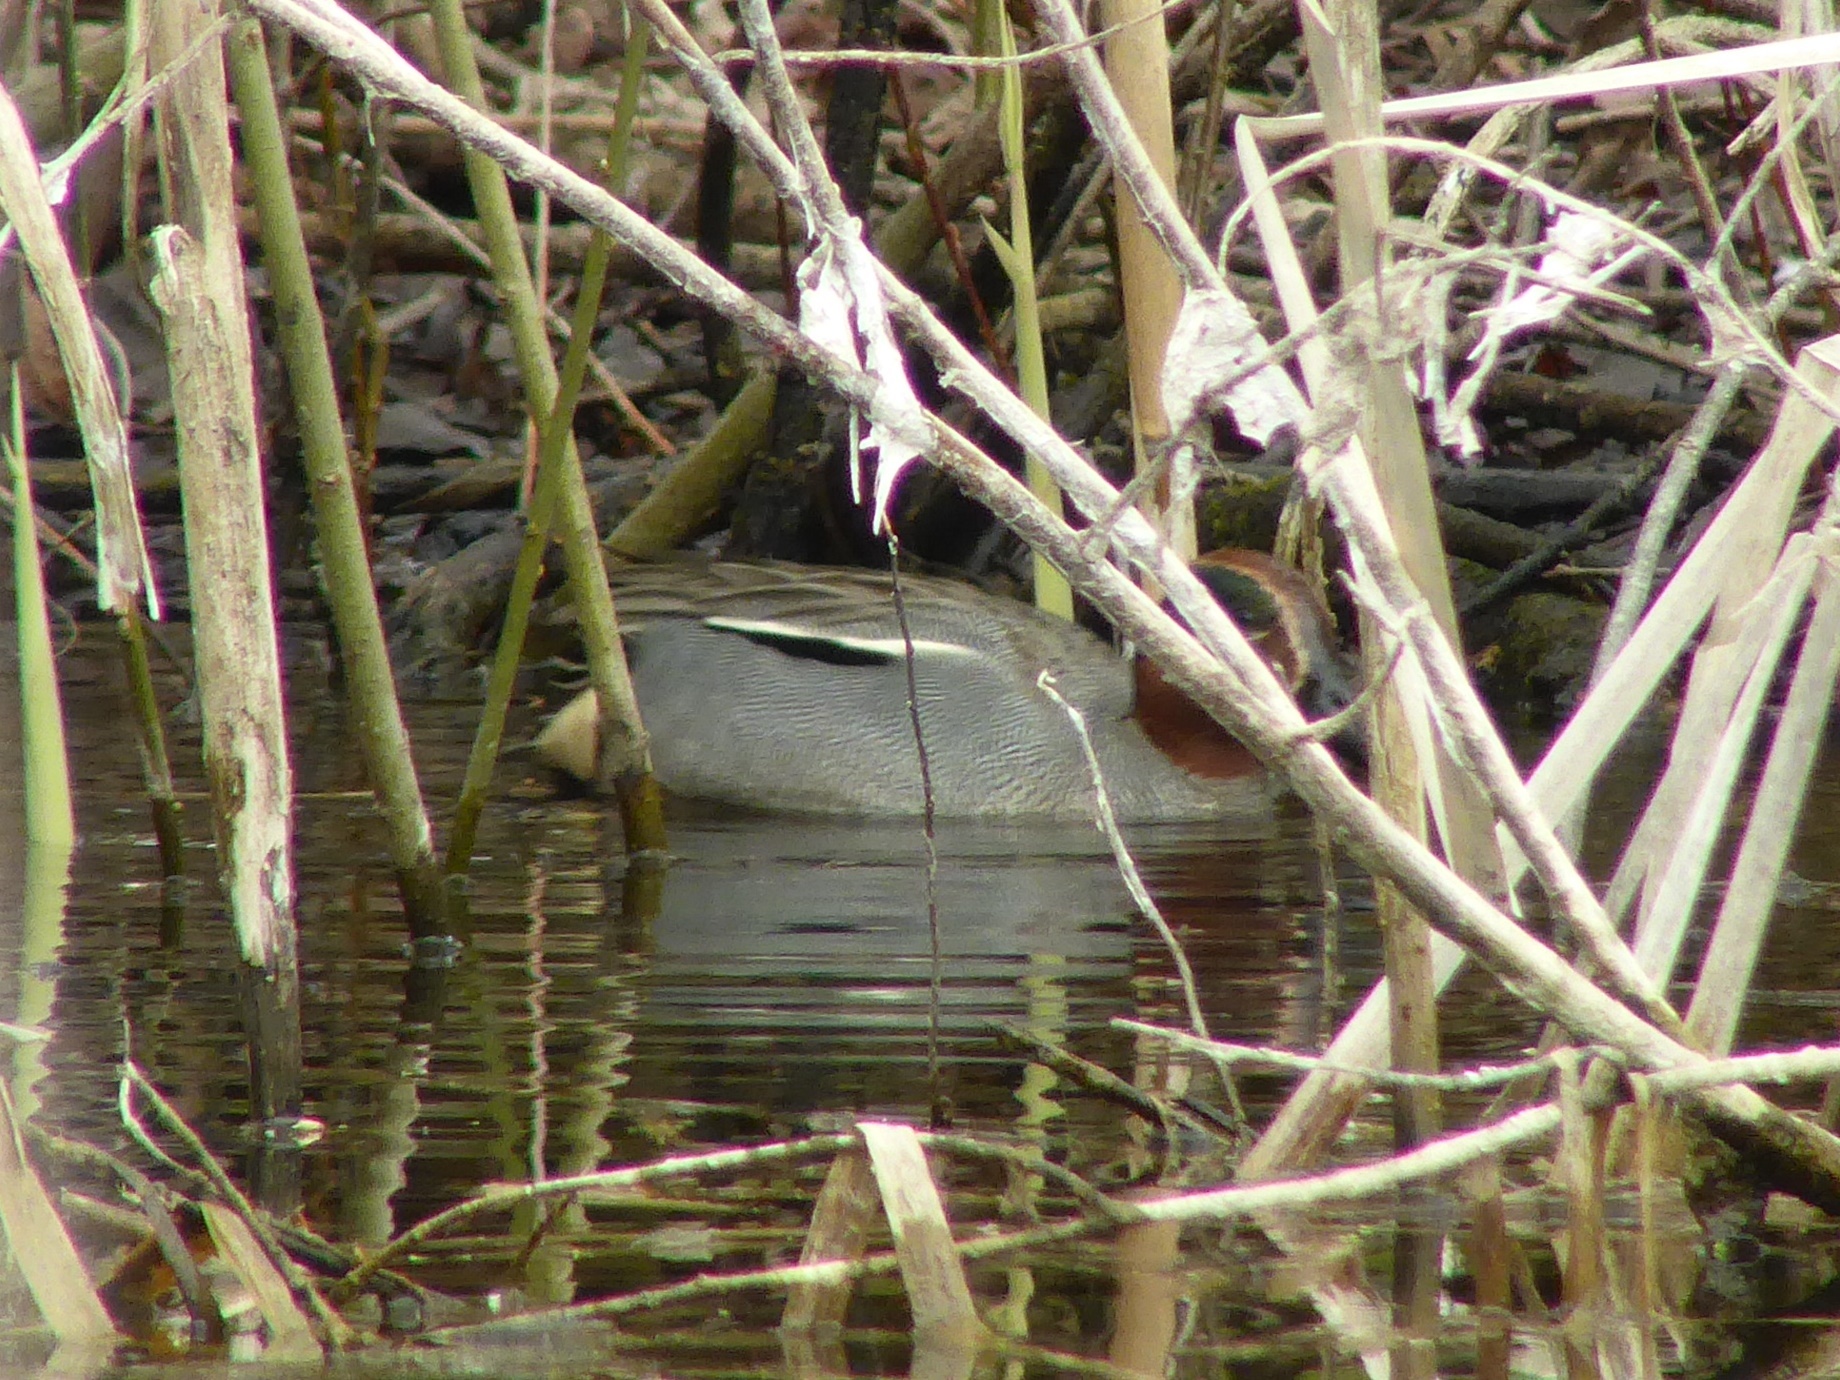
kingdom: Animalia
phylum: Chordata
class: Aves
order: Anseriformes
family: Anatidae
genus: Anas
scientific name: Anas crecca
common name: Eurasian teal
